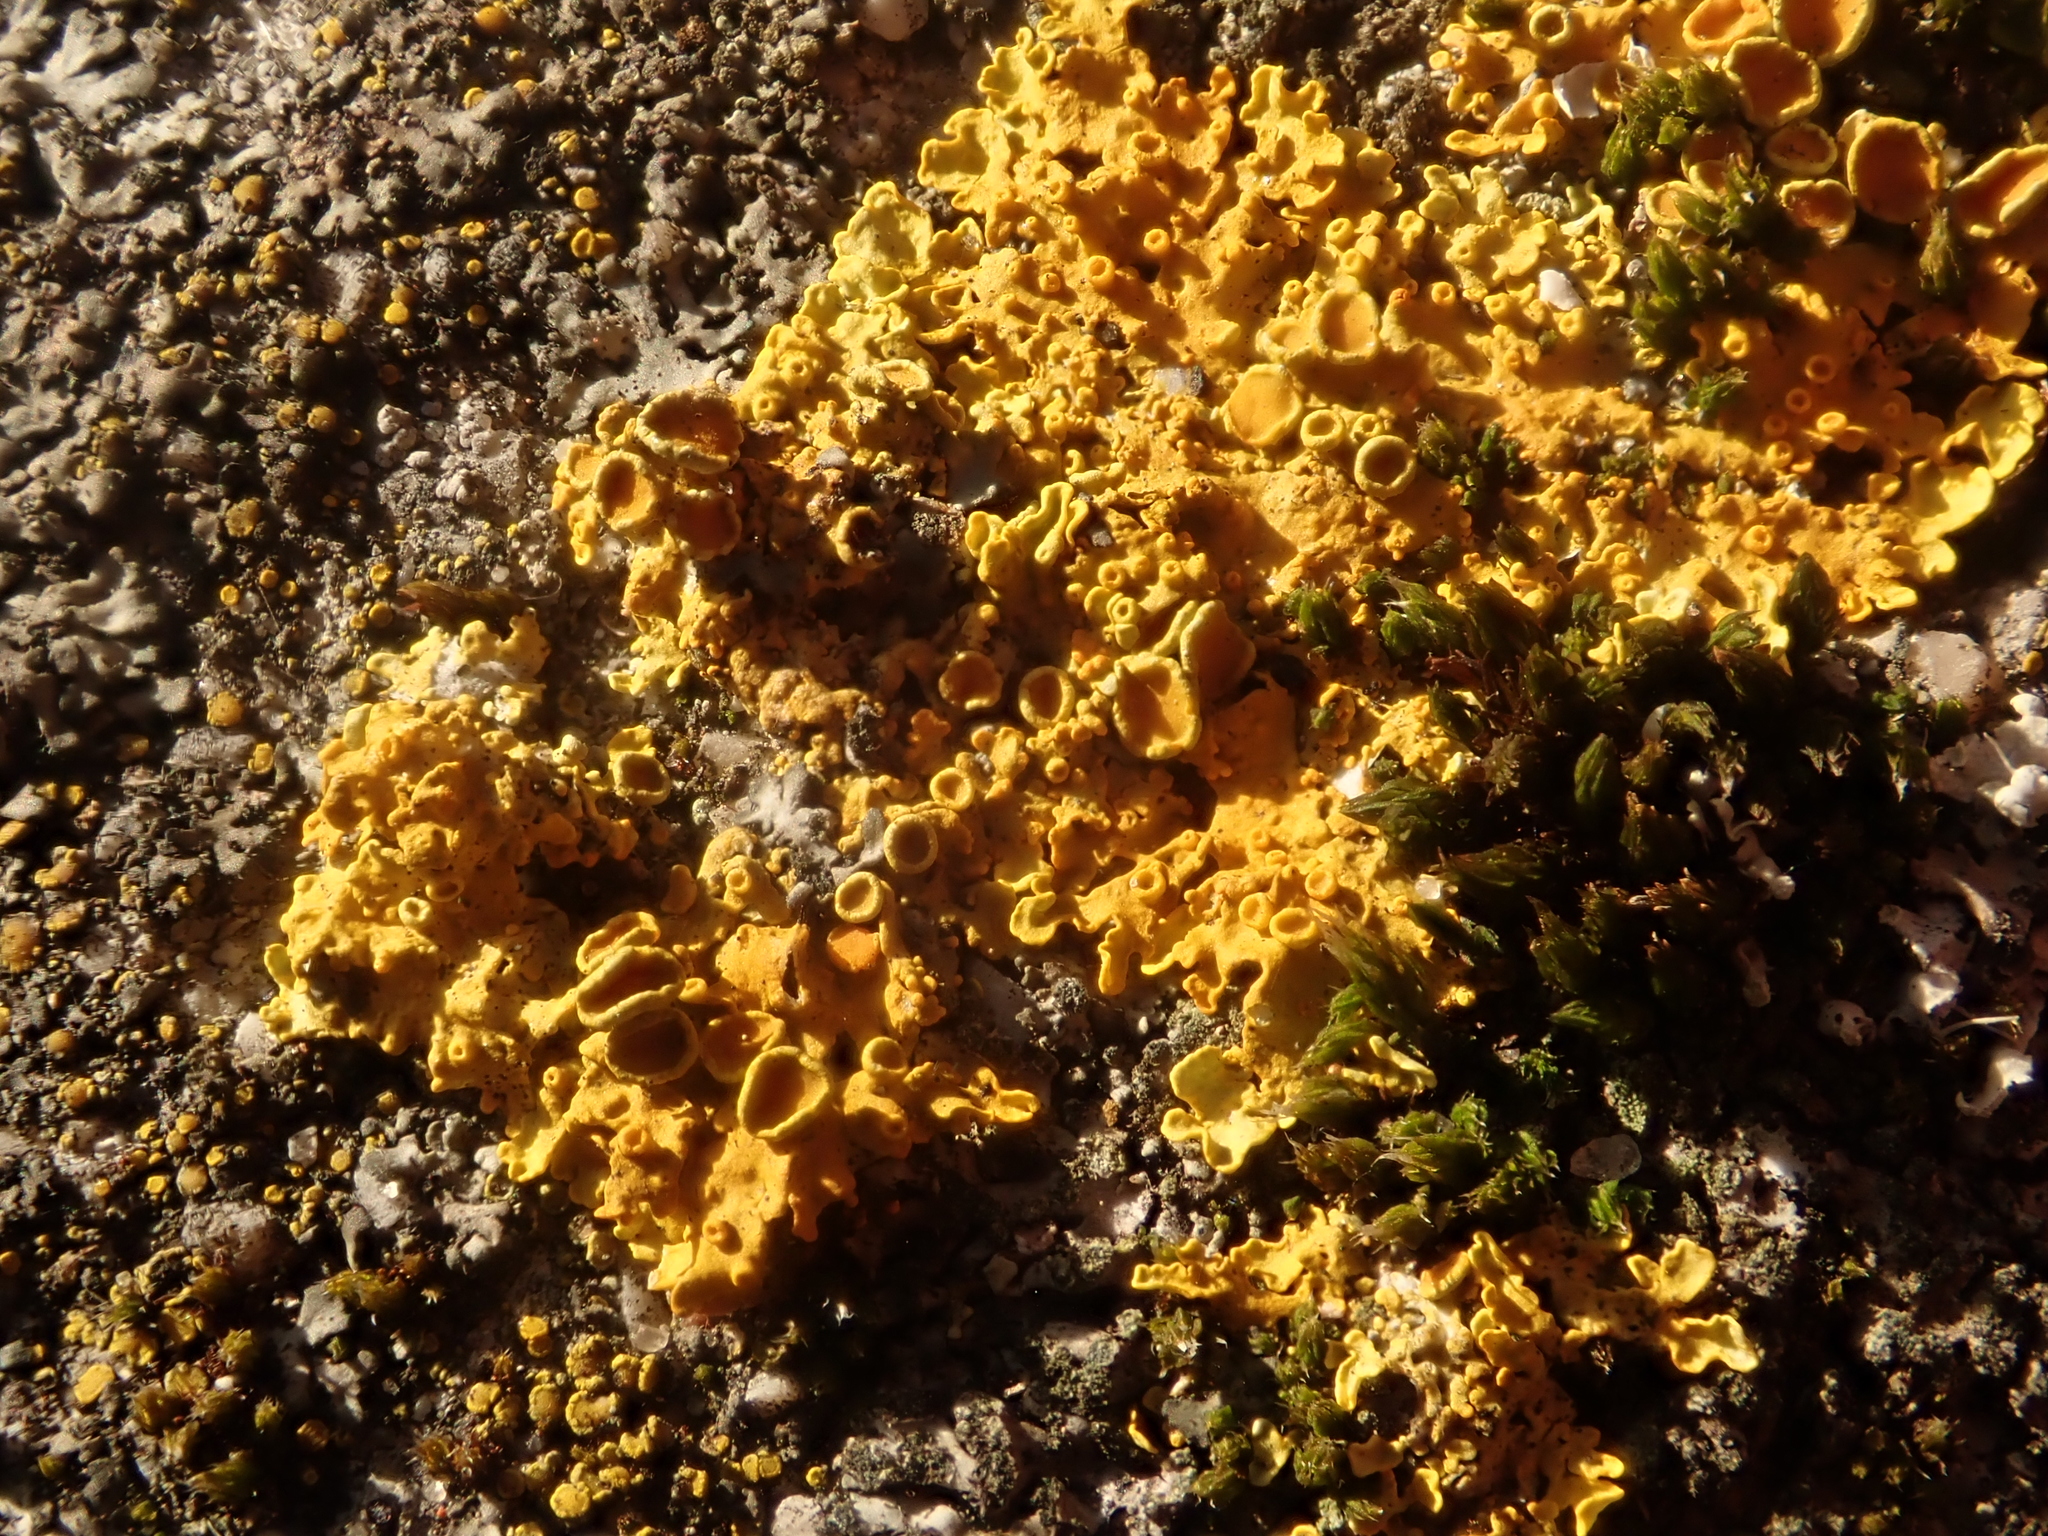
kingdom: Fungi
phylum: Ascomycota
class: Lecanoromycetes
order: Teloschistales
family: Teloschistaceae
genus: Xanthoria
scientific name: Xanthoria parietina
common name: Common orange lichen
